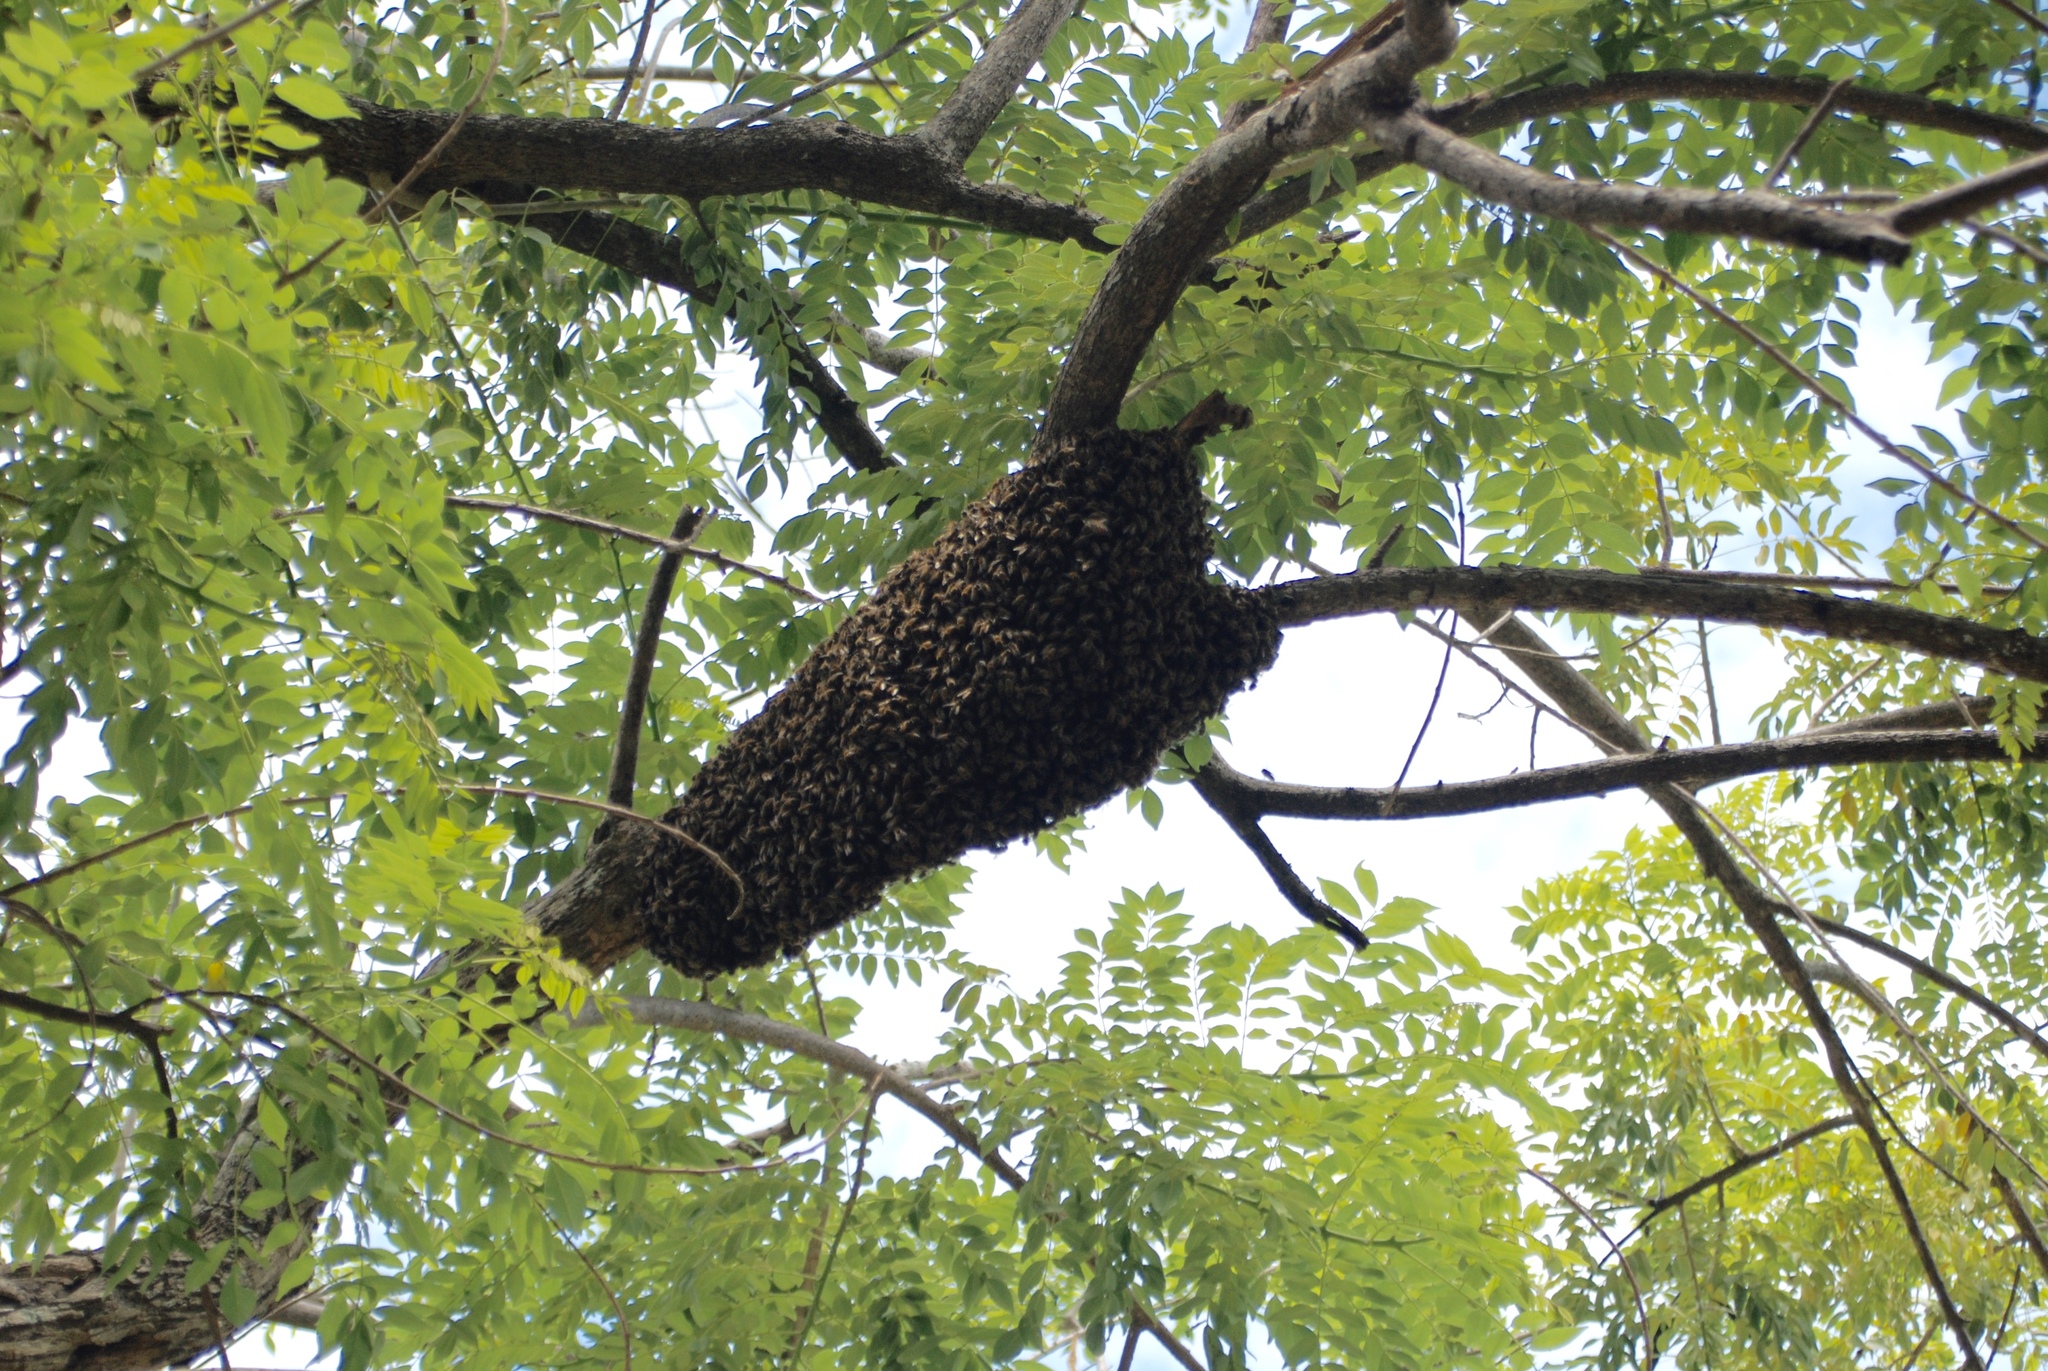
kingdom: Animalia
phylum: Arthropoda
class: Insecta
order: Hymenoptera
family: Apidae
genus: Apis
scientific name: Apis mellifera
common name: Honey bee
